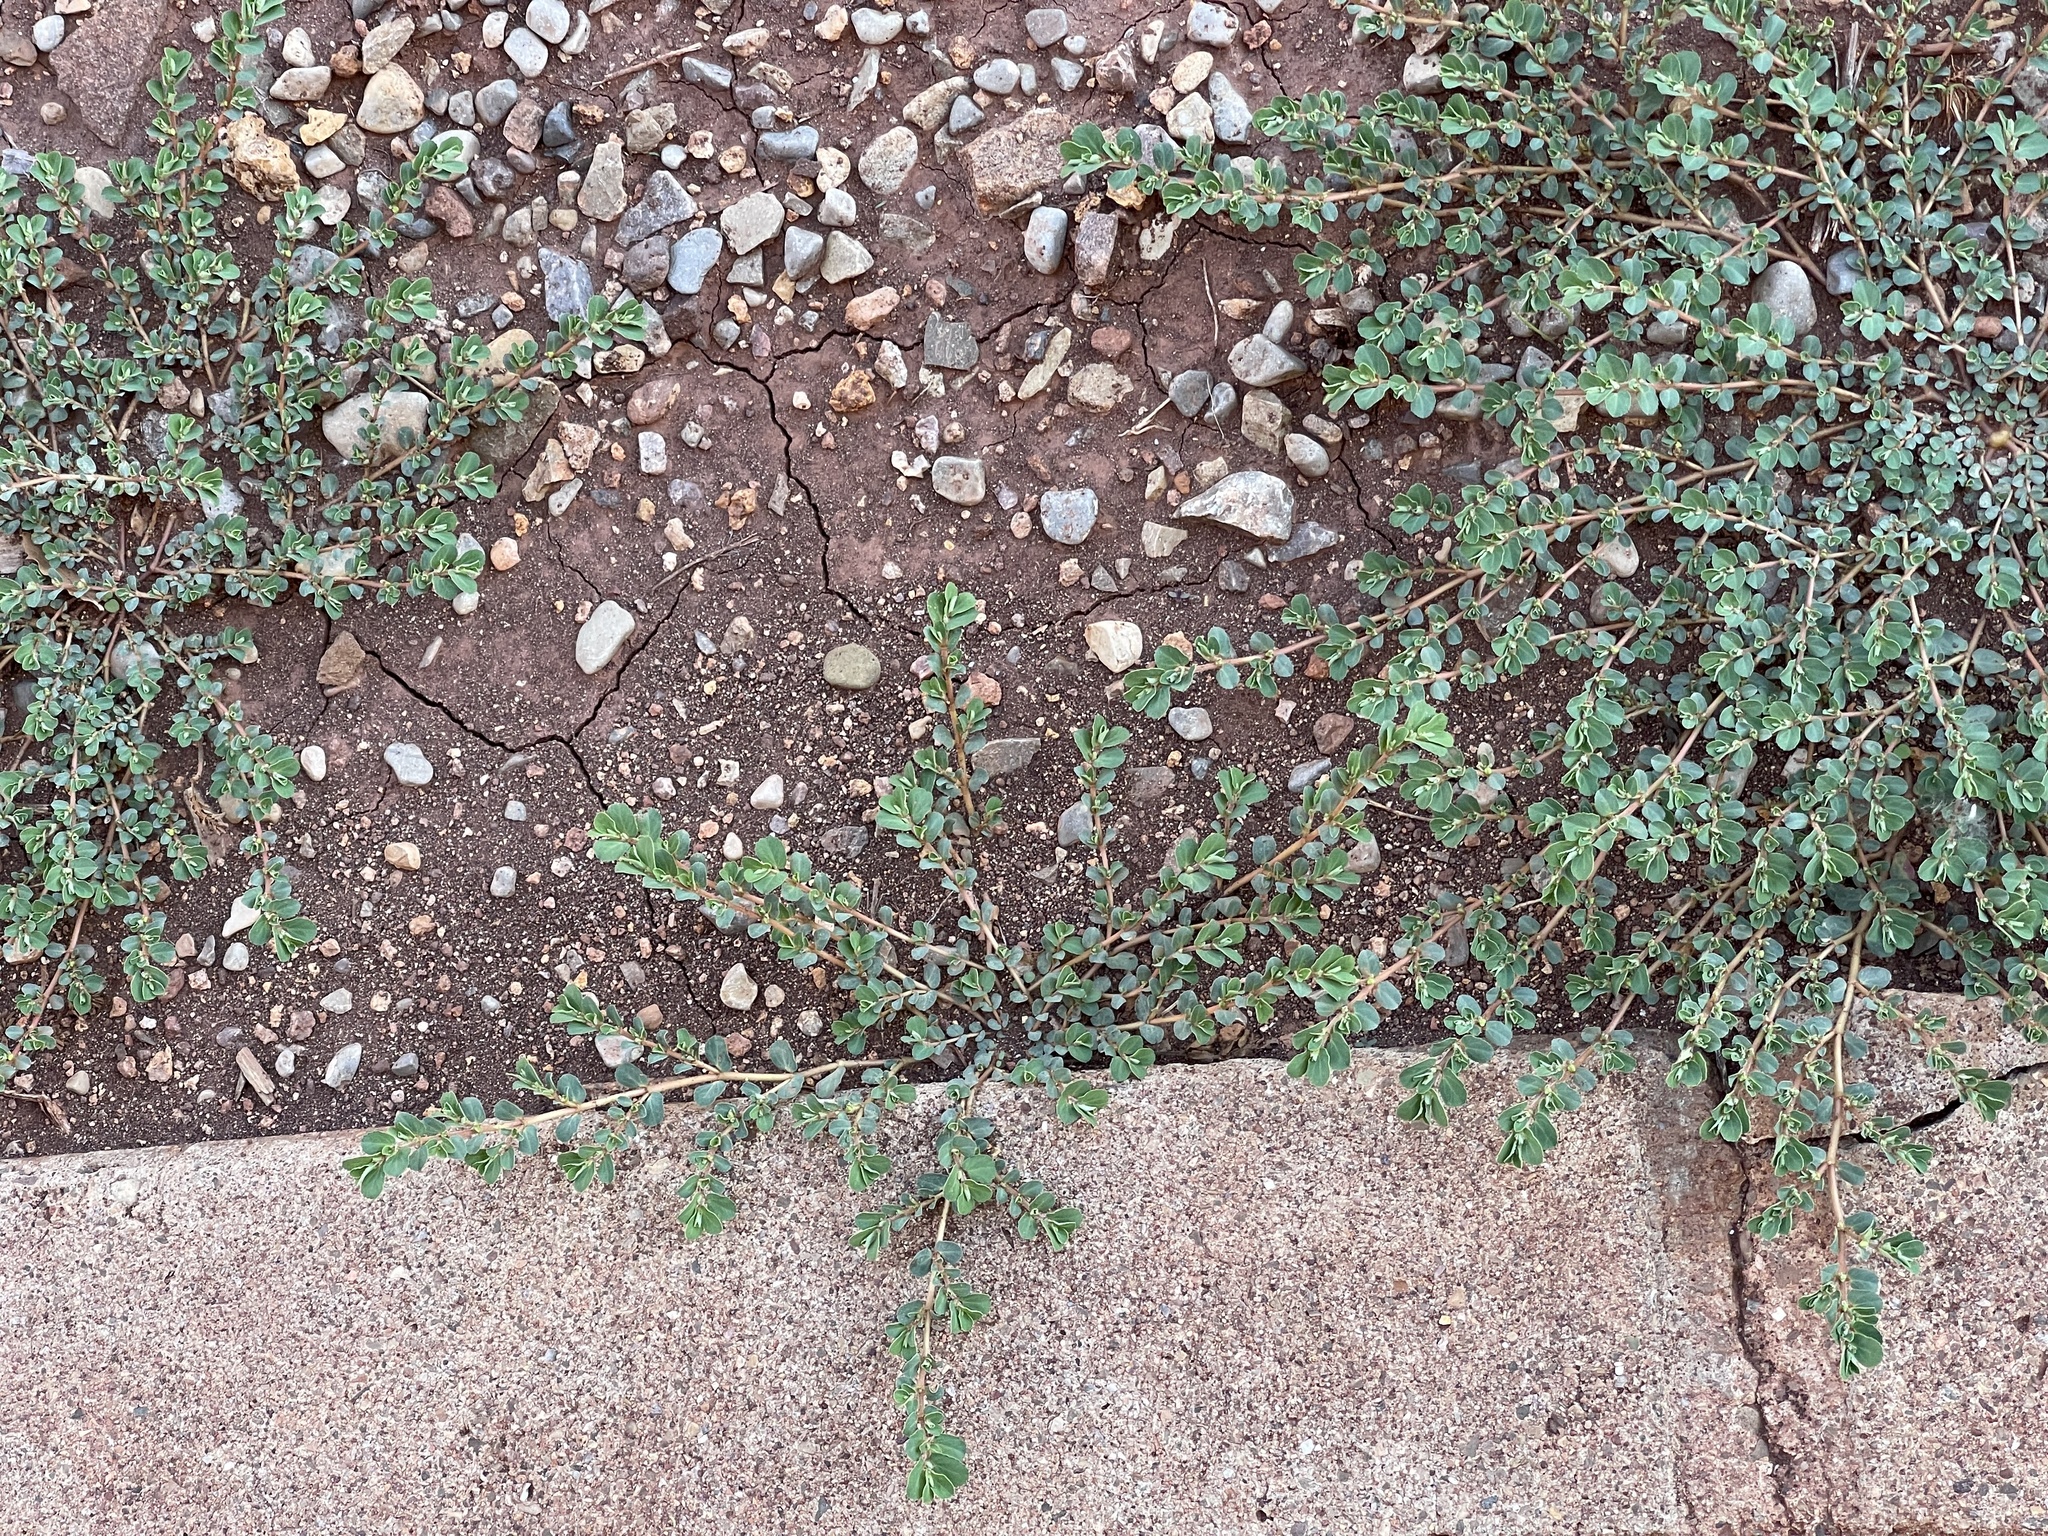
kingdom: Plantae
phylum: Tracheophyta
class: Magnoliopsida
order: Malpighiales
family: Euphorbiaceae
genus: Euphorbia
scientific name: Euphorbia stictospora
